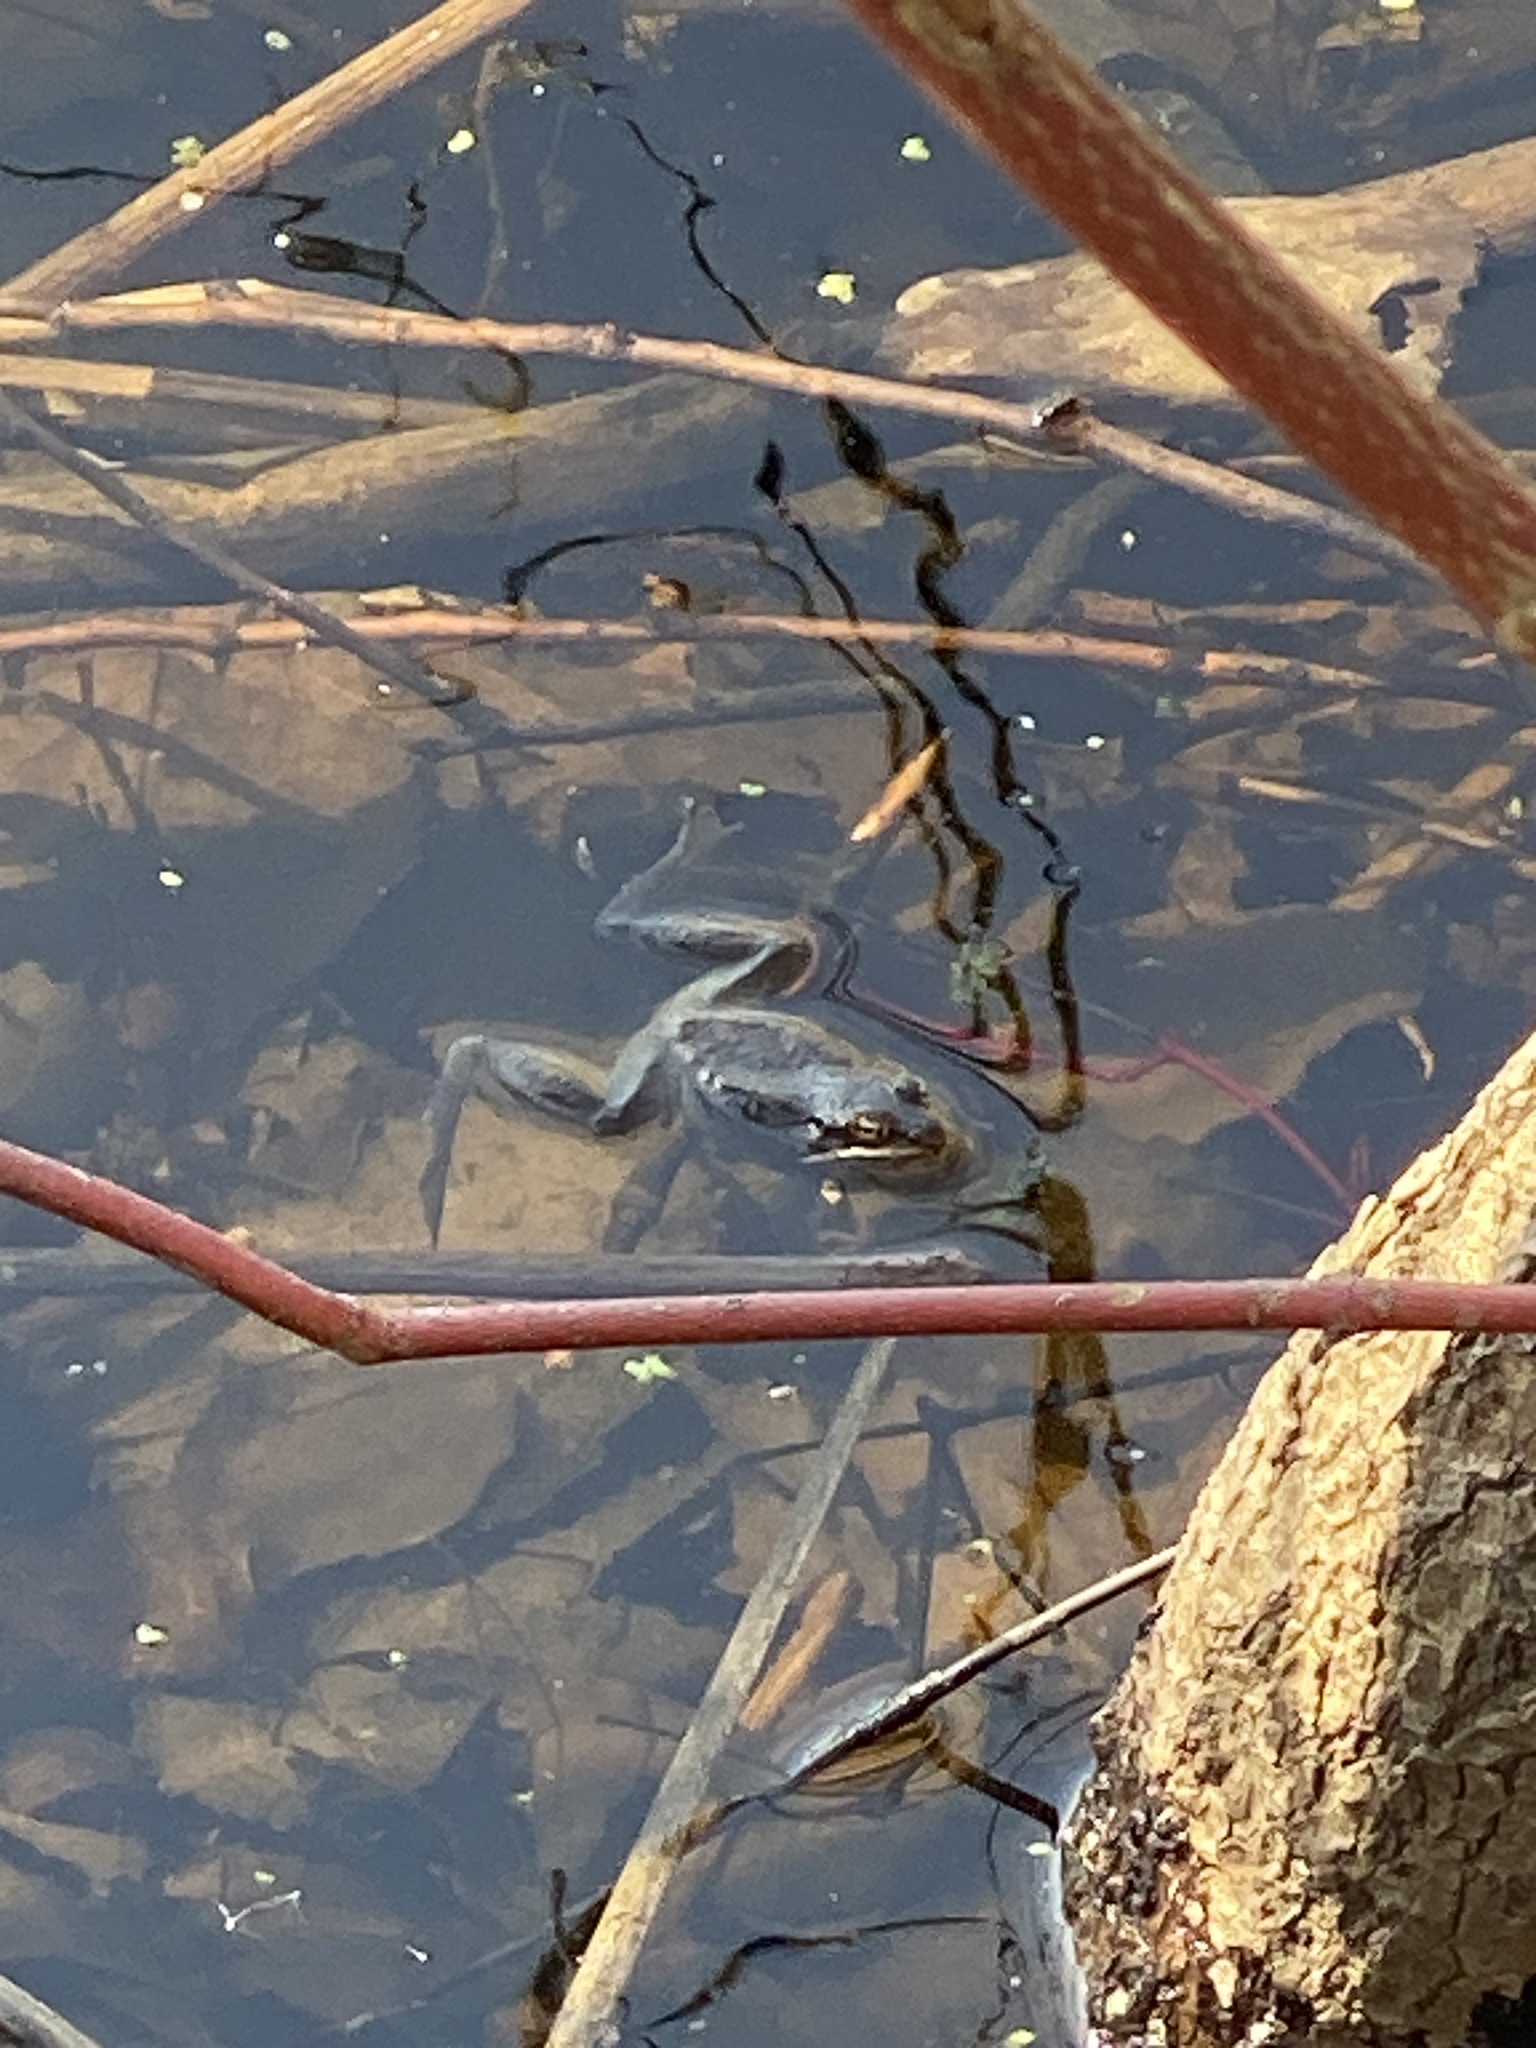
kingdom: Animalia
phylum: Chordata
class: Amphibia
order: Anura
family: Ranidae
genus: Lithobates
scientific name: Lithobates sylvaticus
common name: Wood frog
